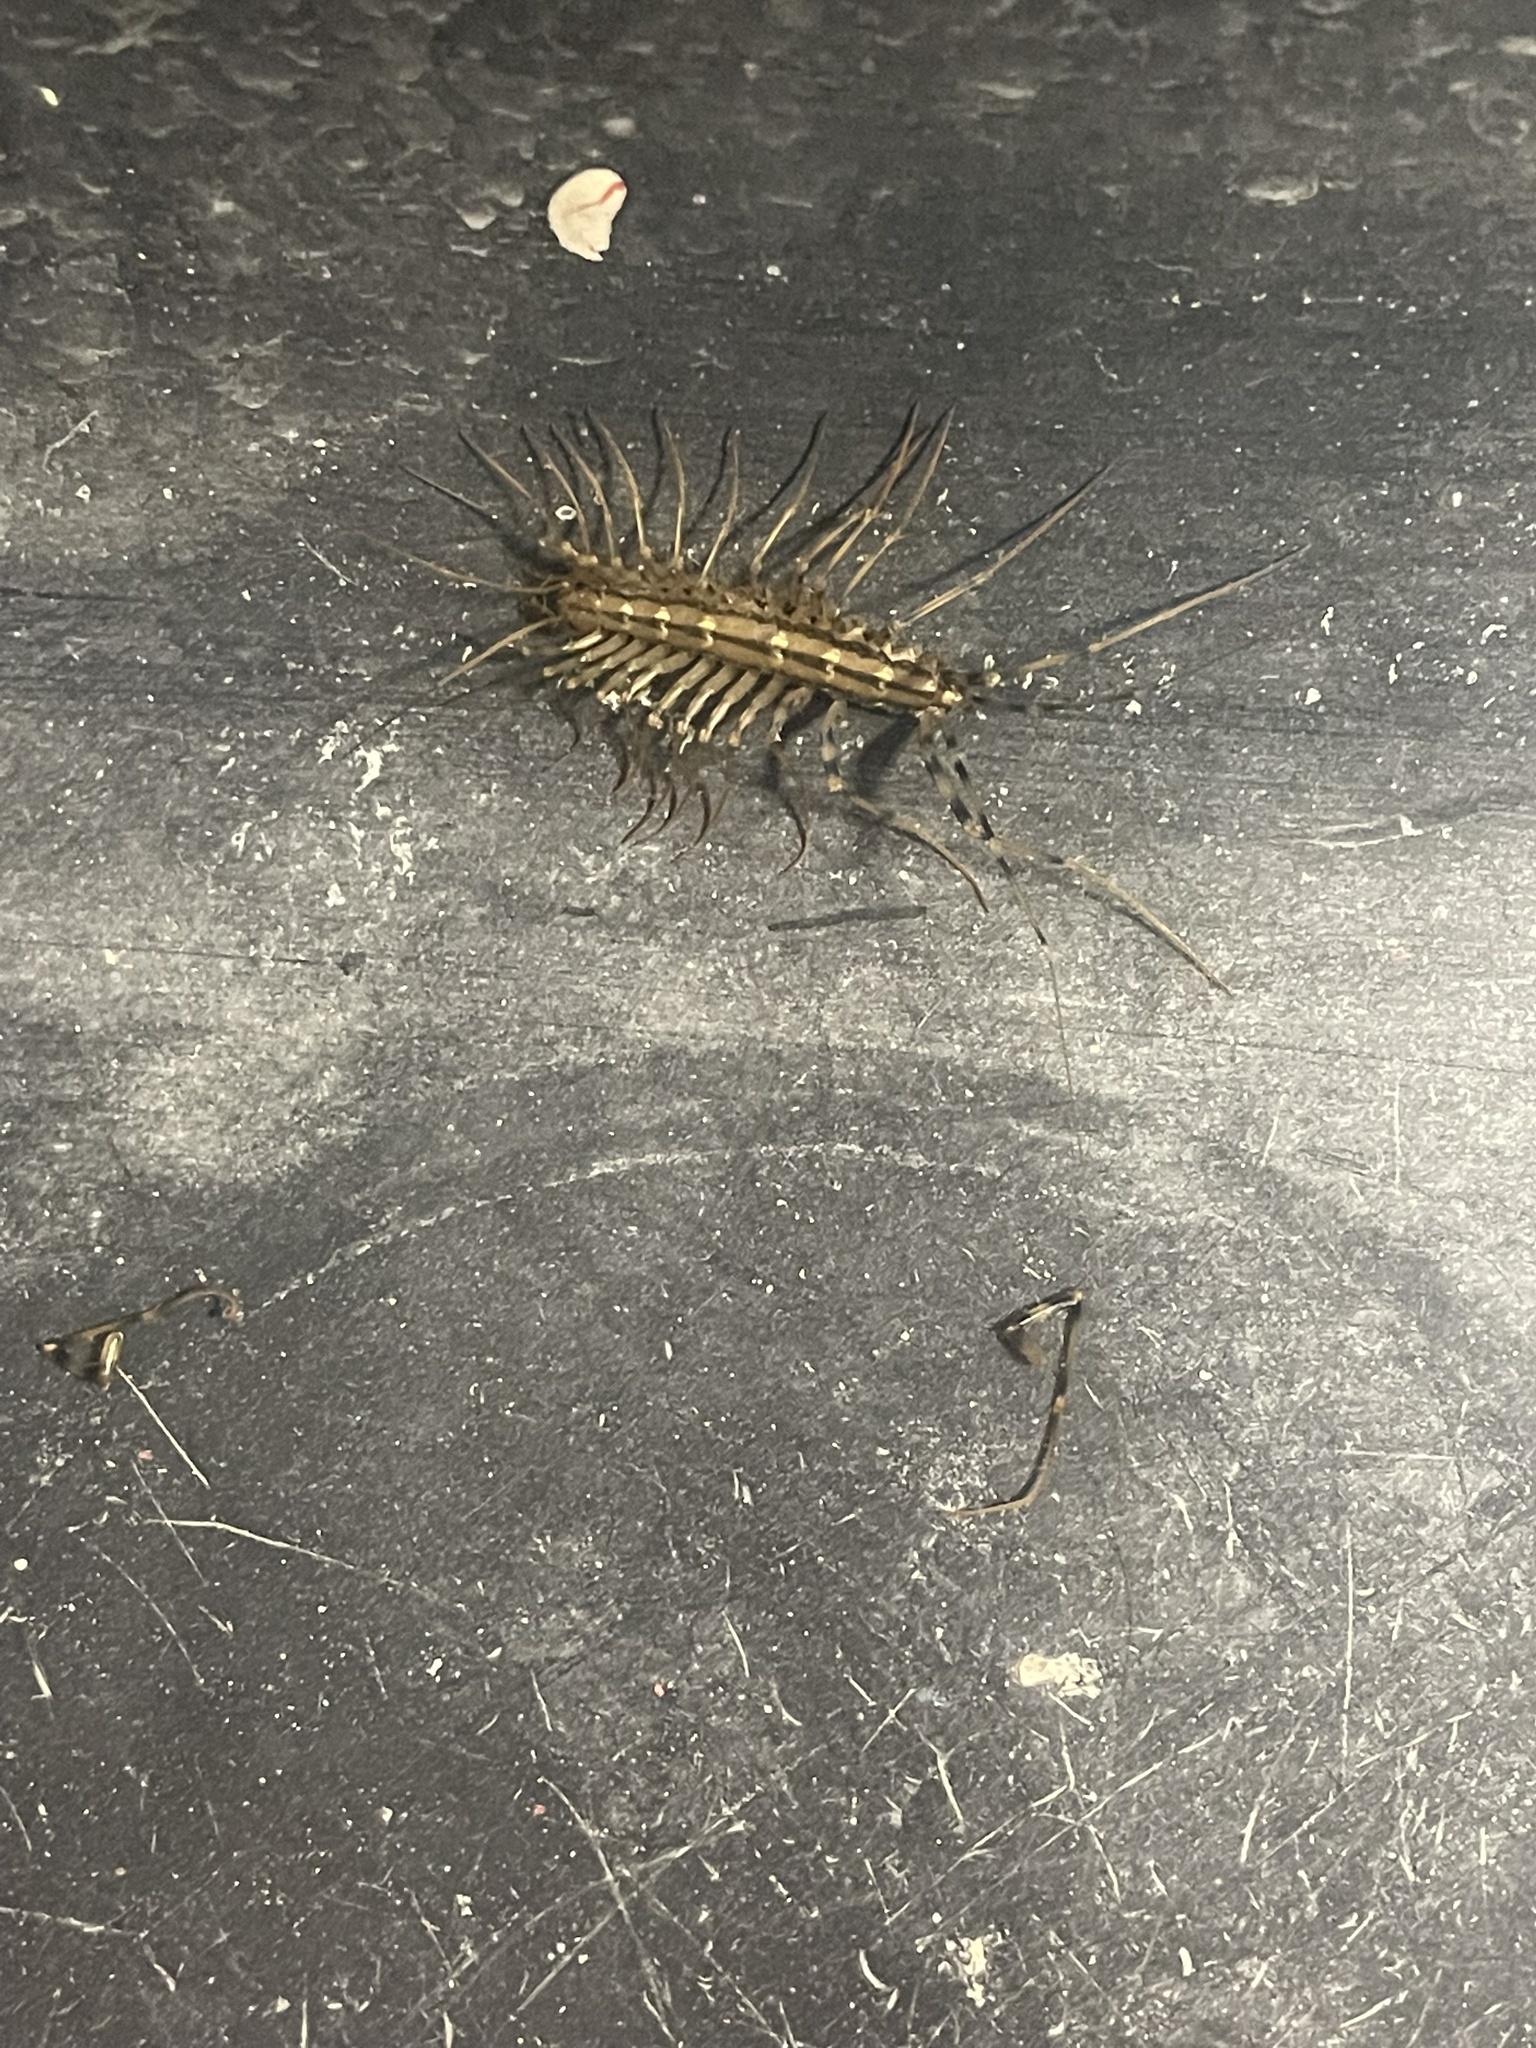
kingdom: Animalia
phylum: Arthropoda
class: Chilopoda
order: Scutigeromorpha
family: Scutigeridae
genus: Scutigera
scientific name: Scutigera coleoptrata
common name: House centipede
